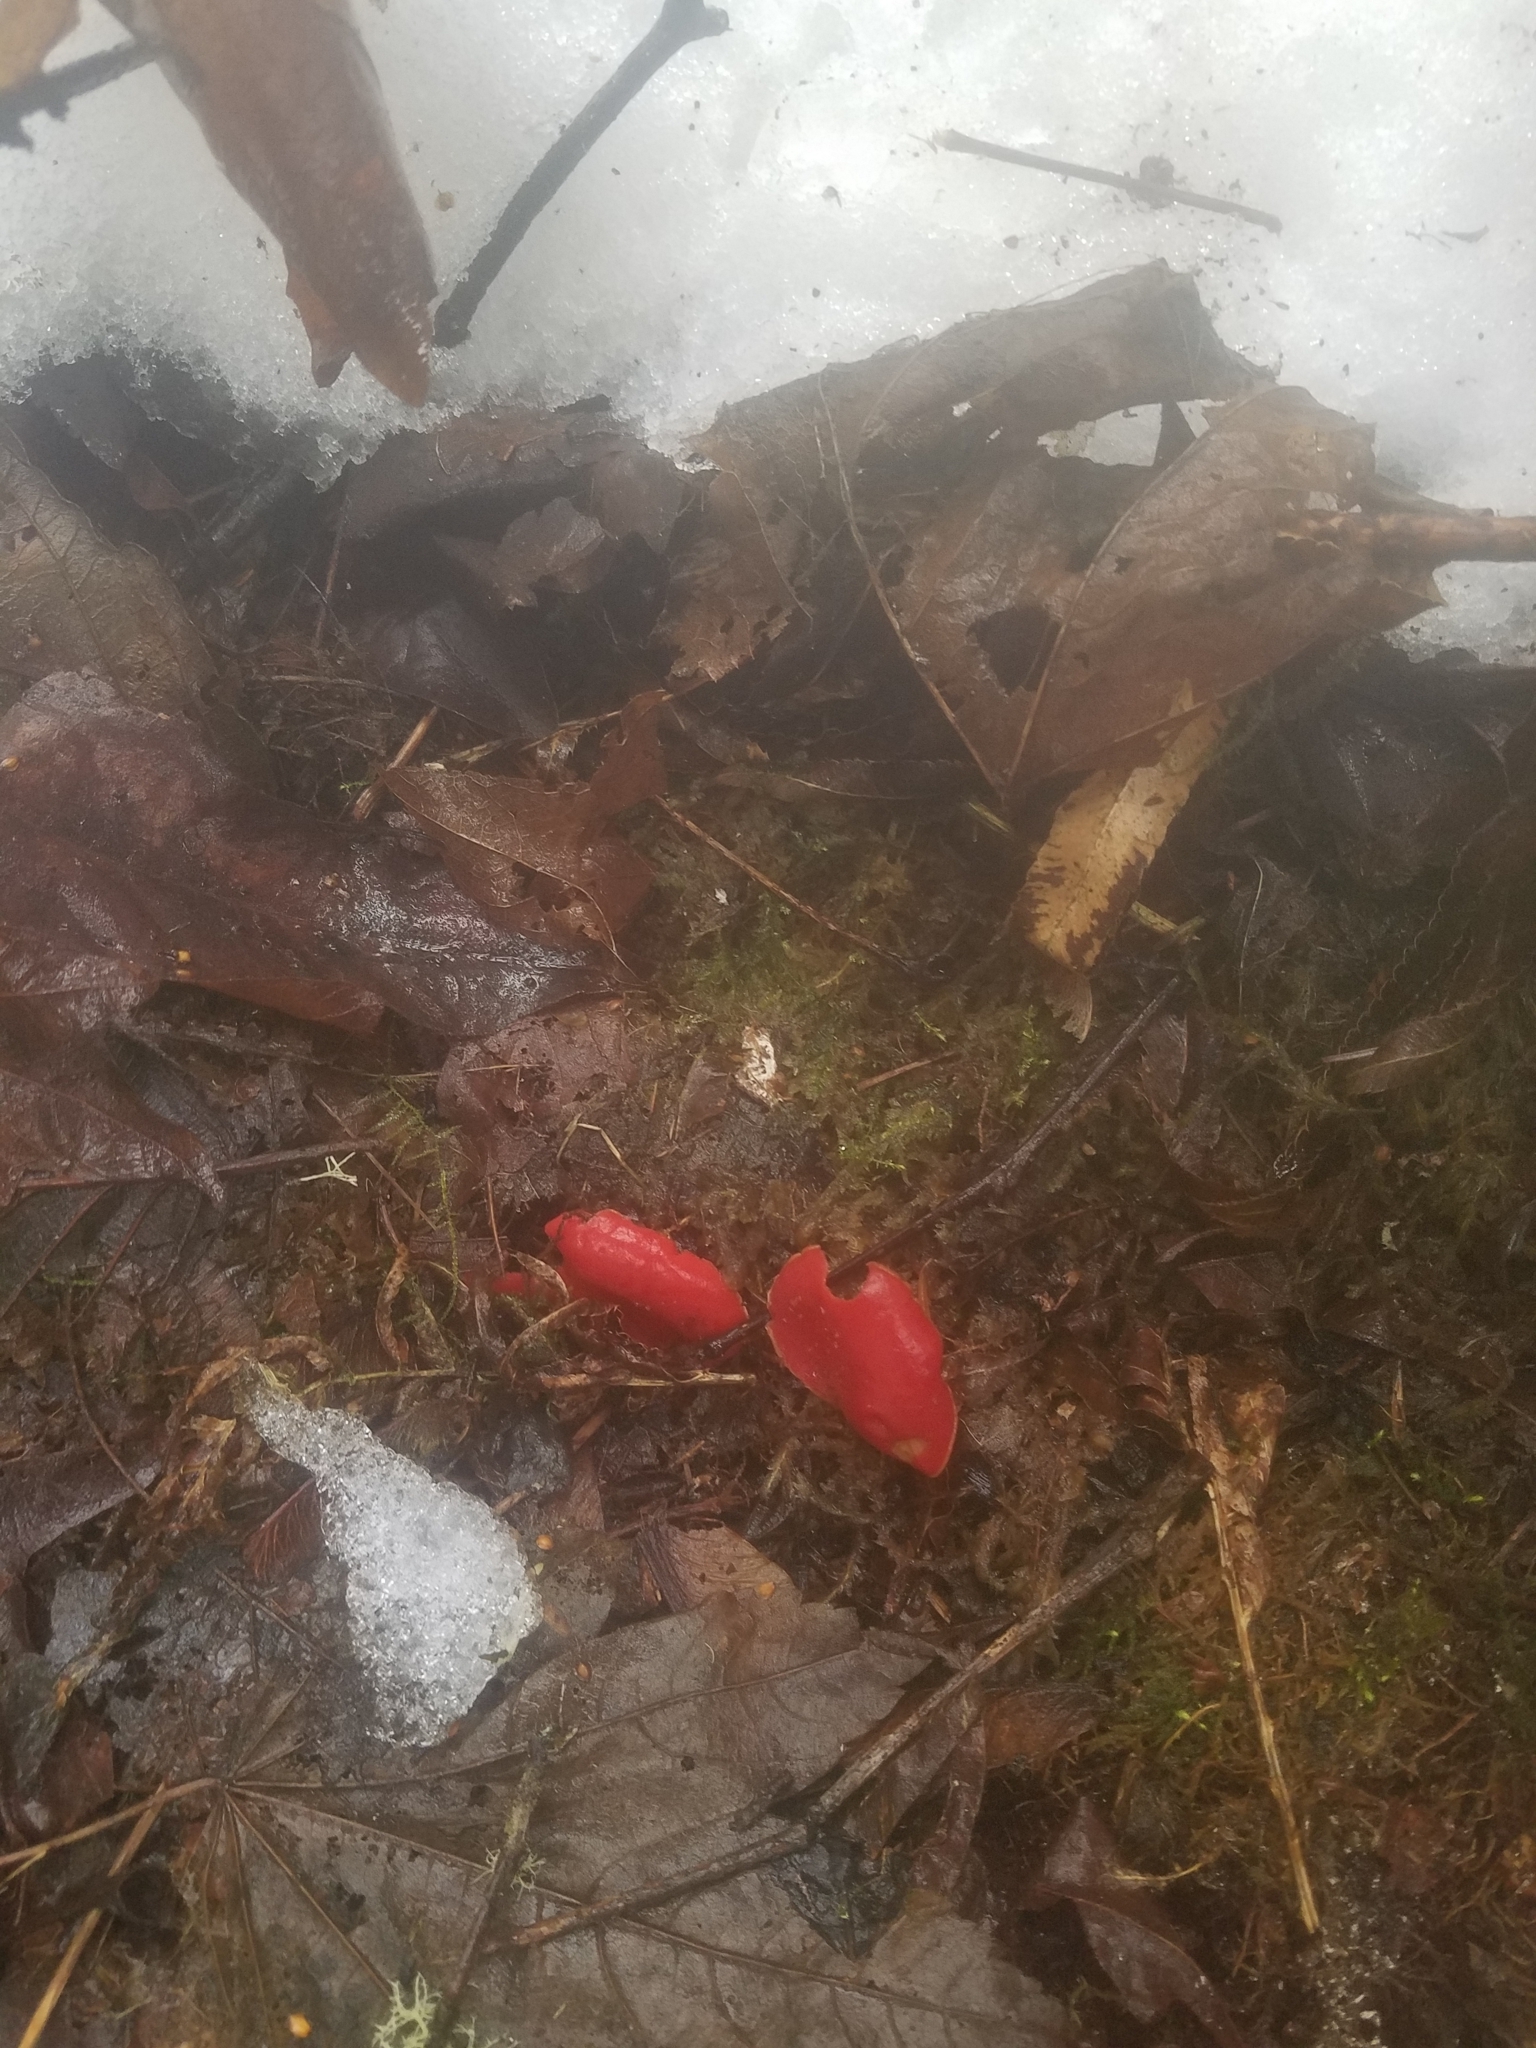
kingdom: Fungi
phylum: Ascomycota
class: Pezizomycetes
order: Pezizales
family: Sarcoscyphaceae
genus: Sarcoscypha
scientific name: Sarcoscypha coccinea
